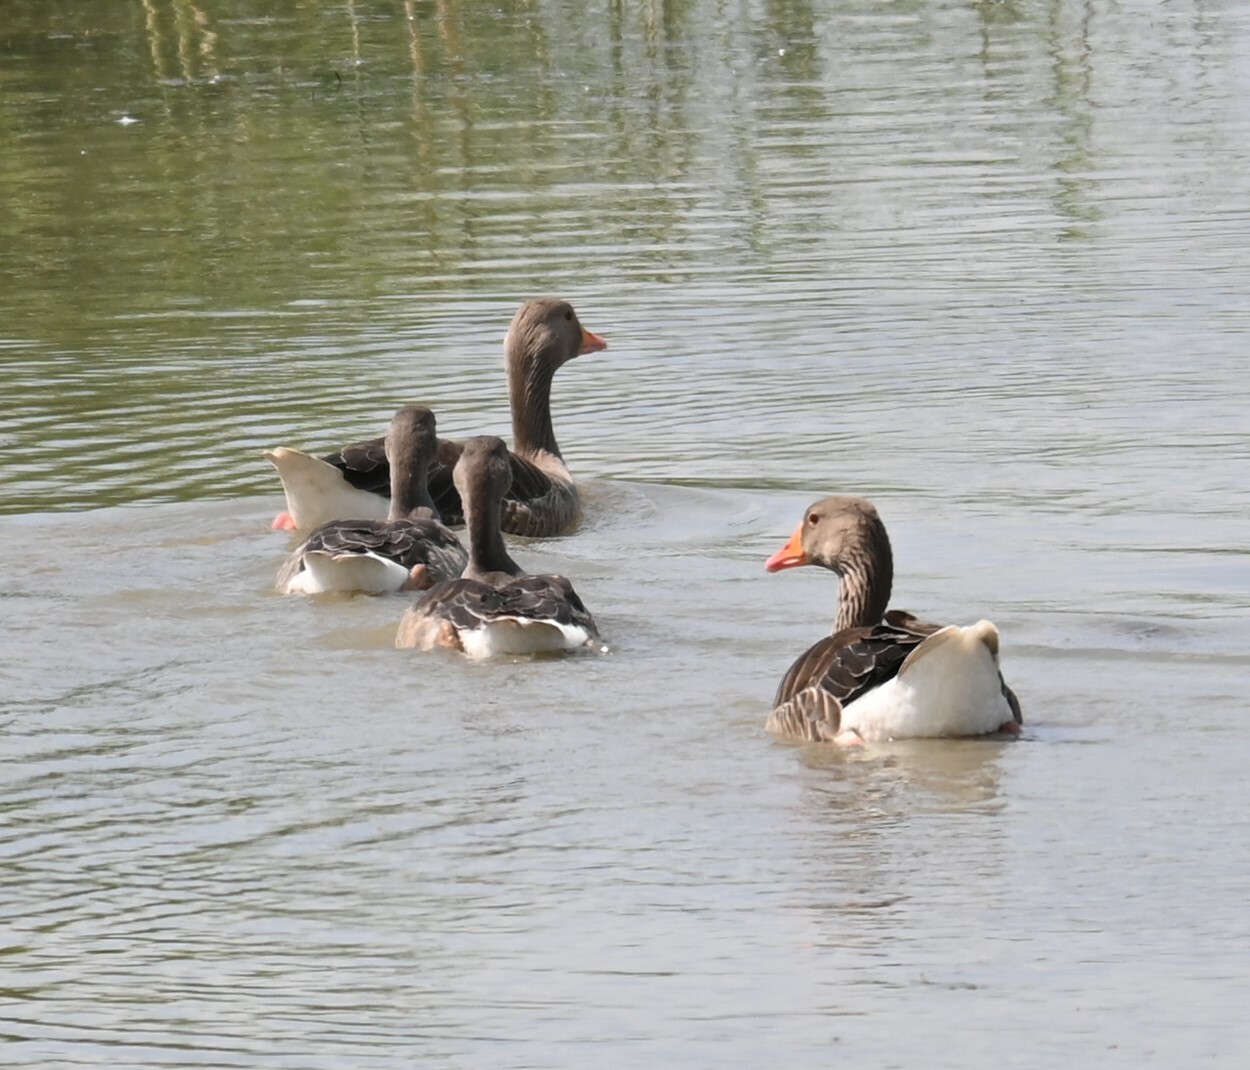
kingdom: Animalia
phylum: Chordata
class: Aves
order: Anseriformes
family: Anatidae
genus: Anser
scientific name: Anser anser
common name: Greylag goose
